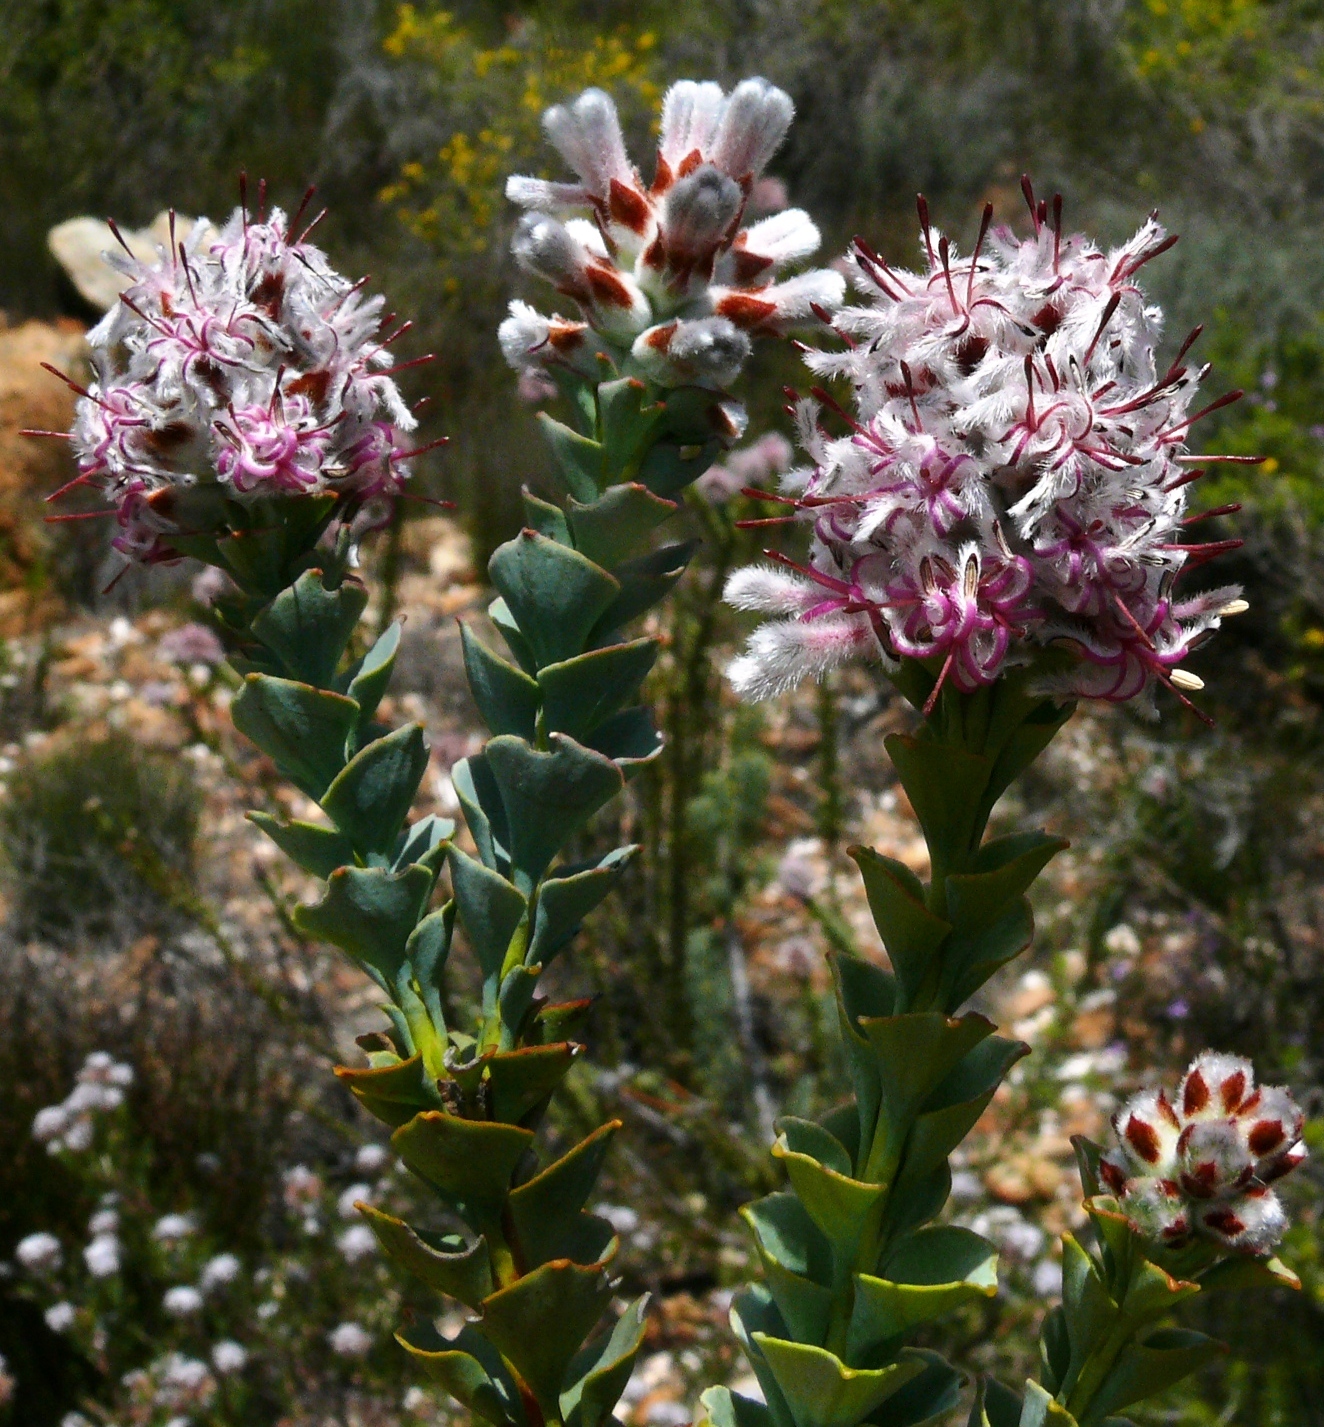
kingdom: Plantae
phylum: Tracheophyta
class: Magnoliopsida
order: Proteales
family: Proteaceae
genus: Paranomus
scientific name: Paranomus spathulatus
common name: Langeberg sceptre
